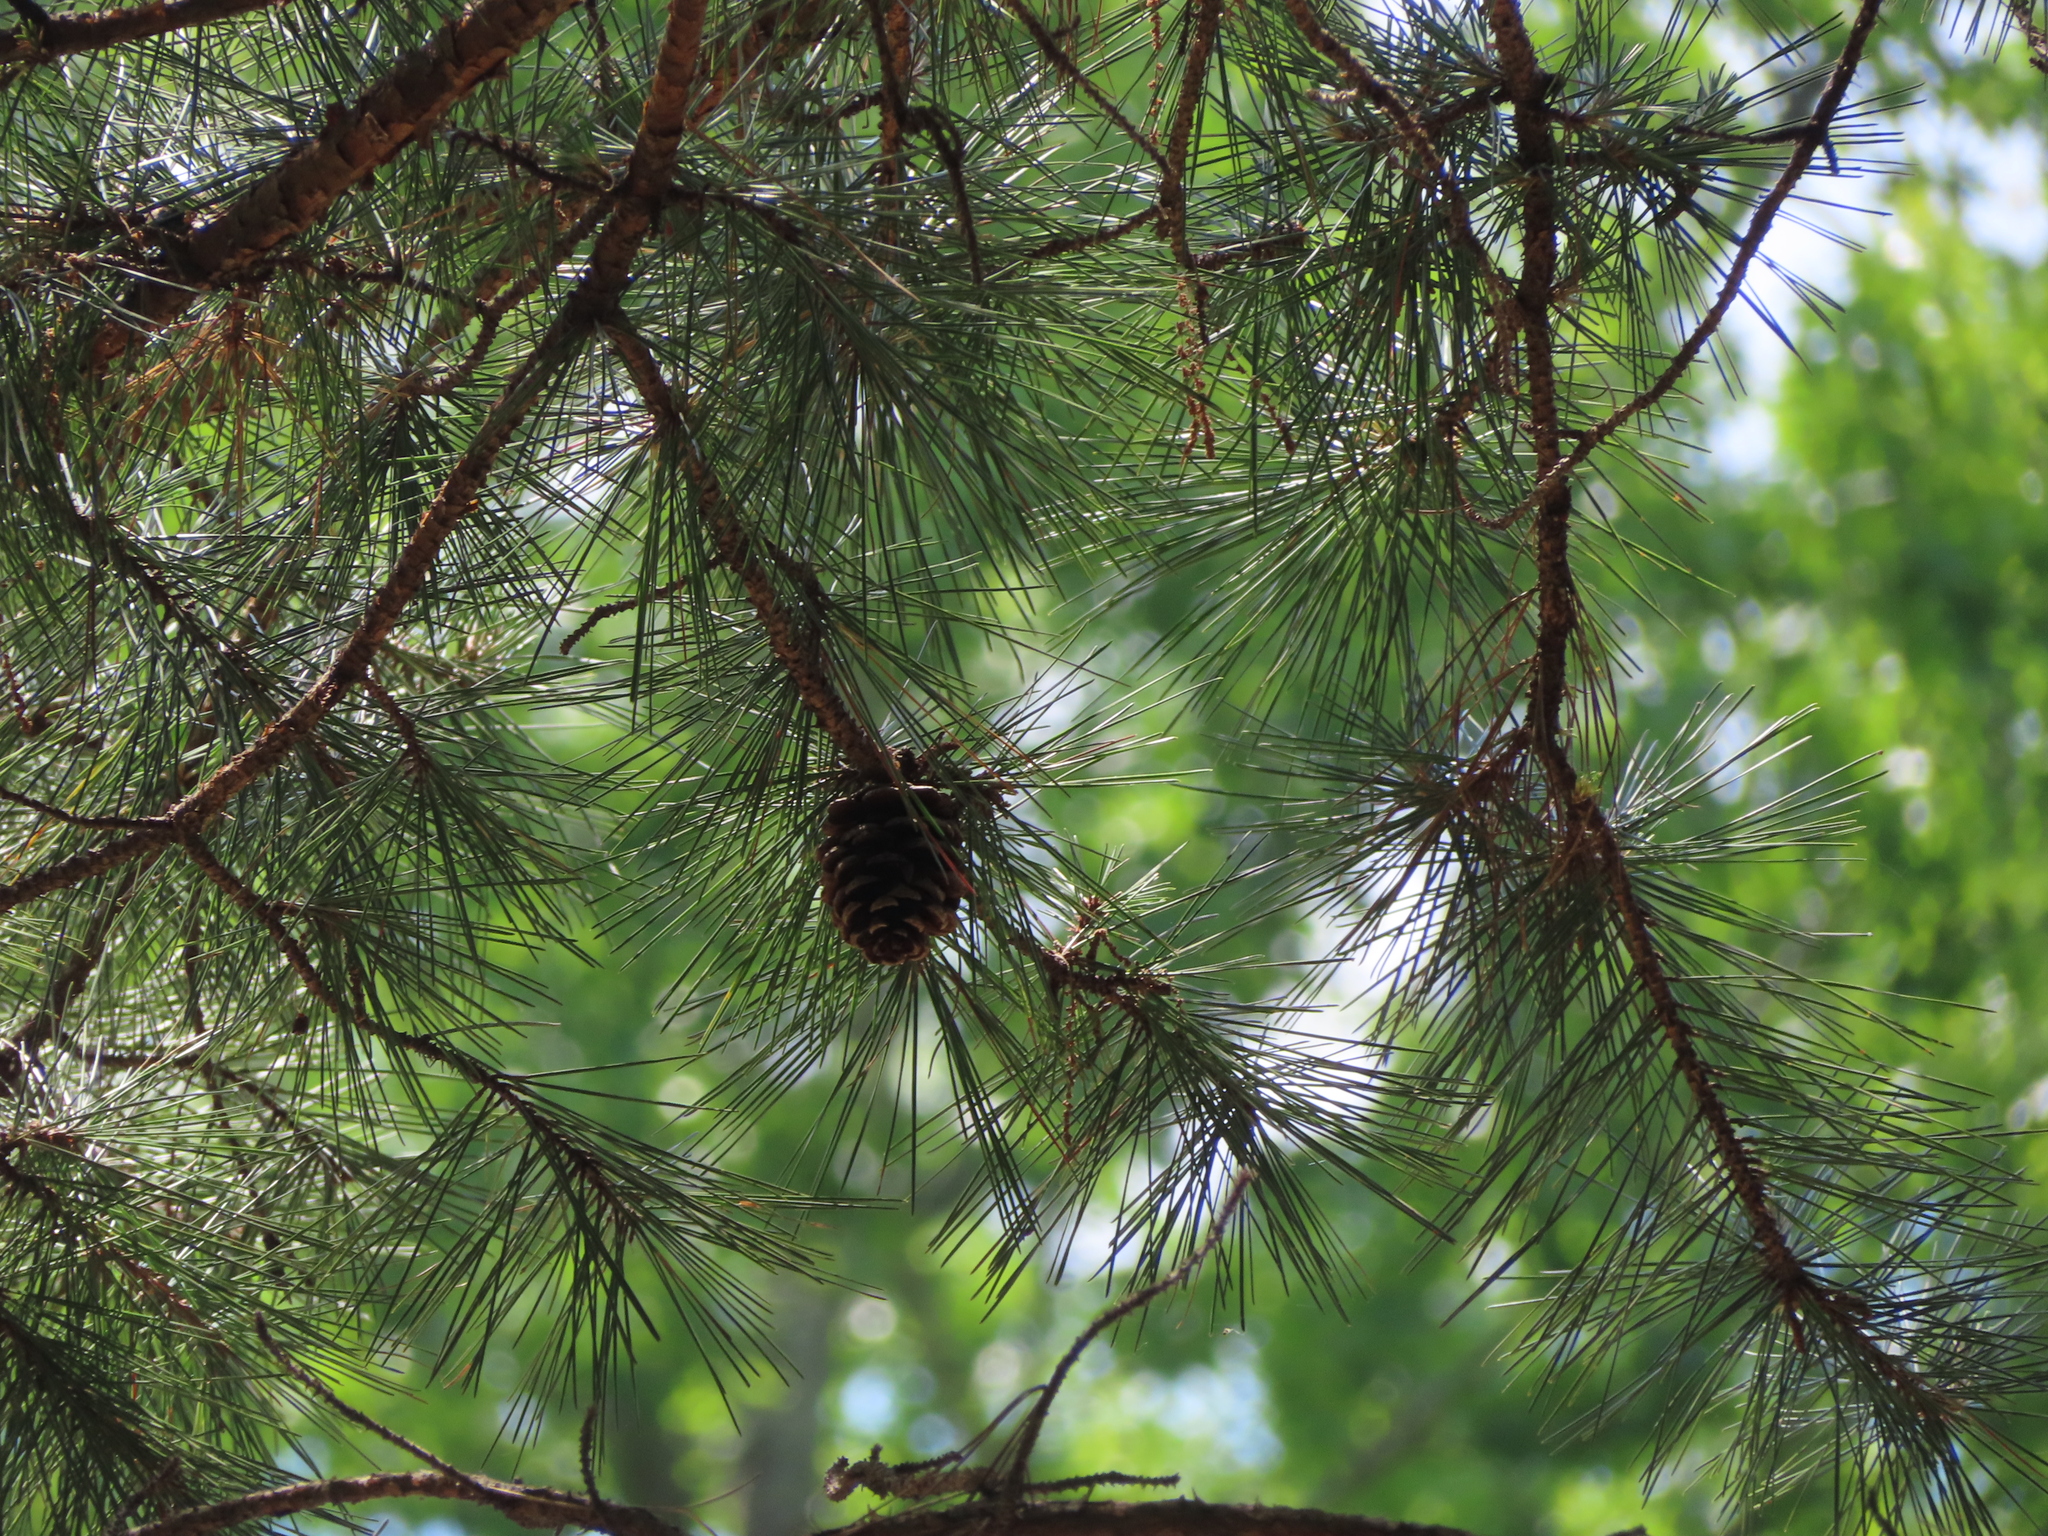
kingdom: Plantae
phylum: Tracheophyta
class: Pinopsida
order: Pinales
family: Pinaceae
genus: Pinus
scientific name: Pinus echinata
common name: Shortleaf pine
